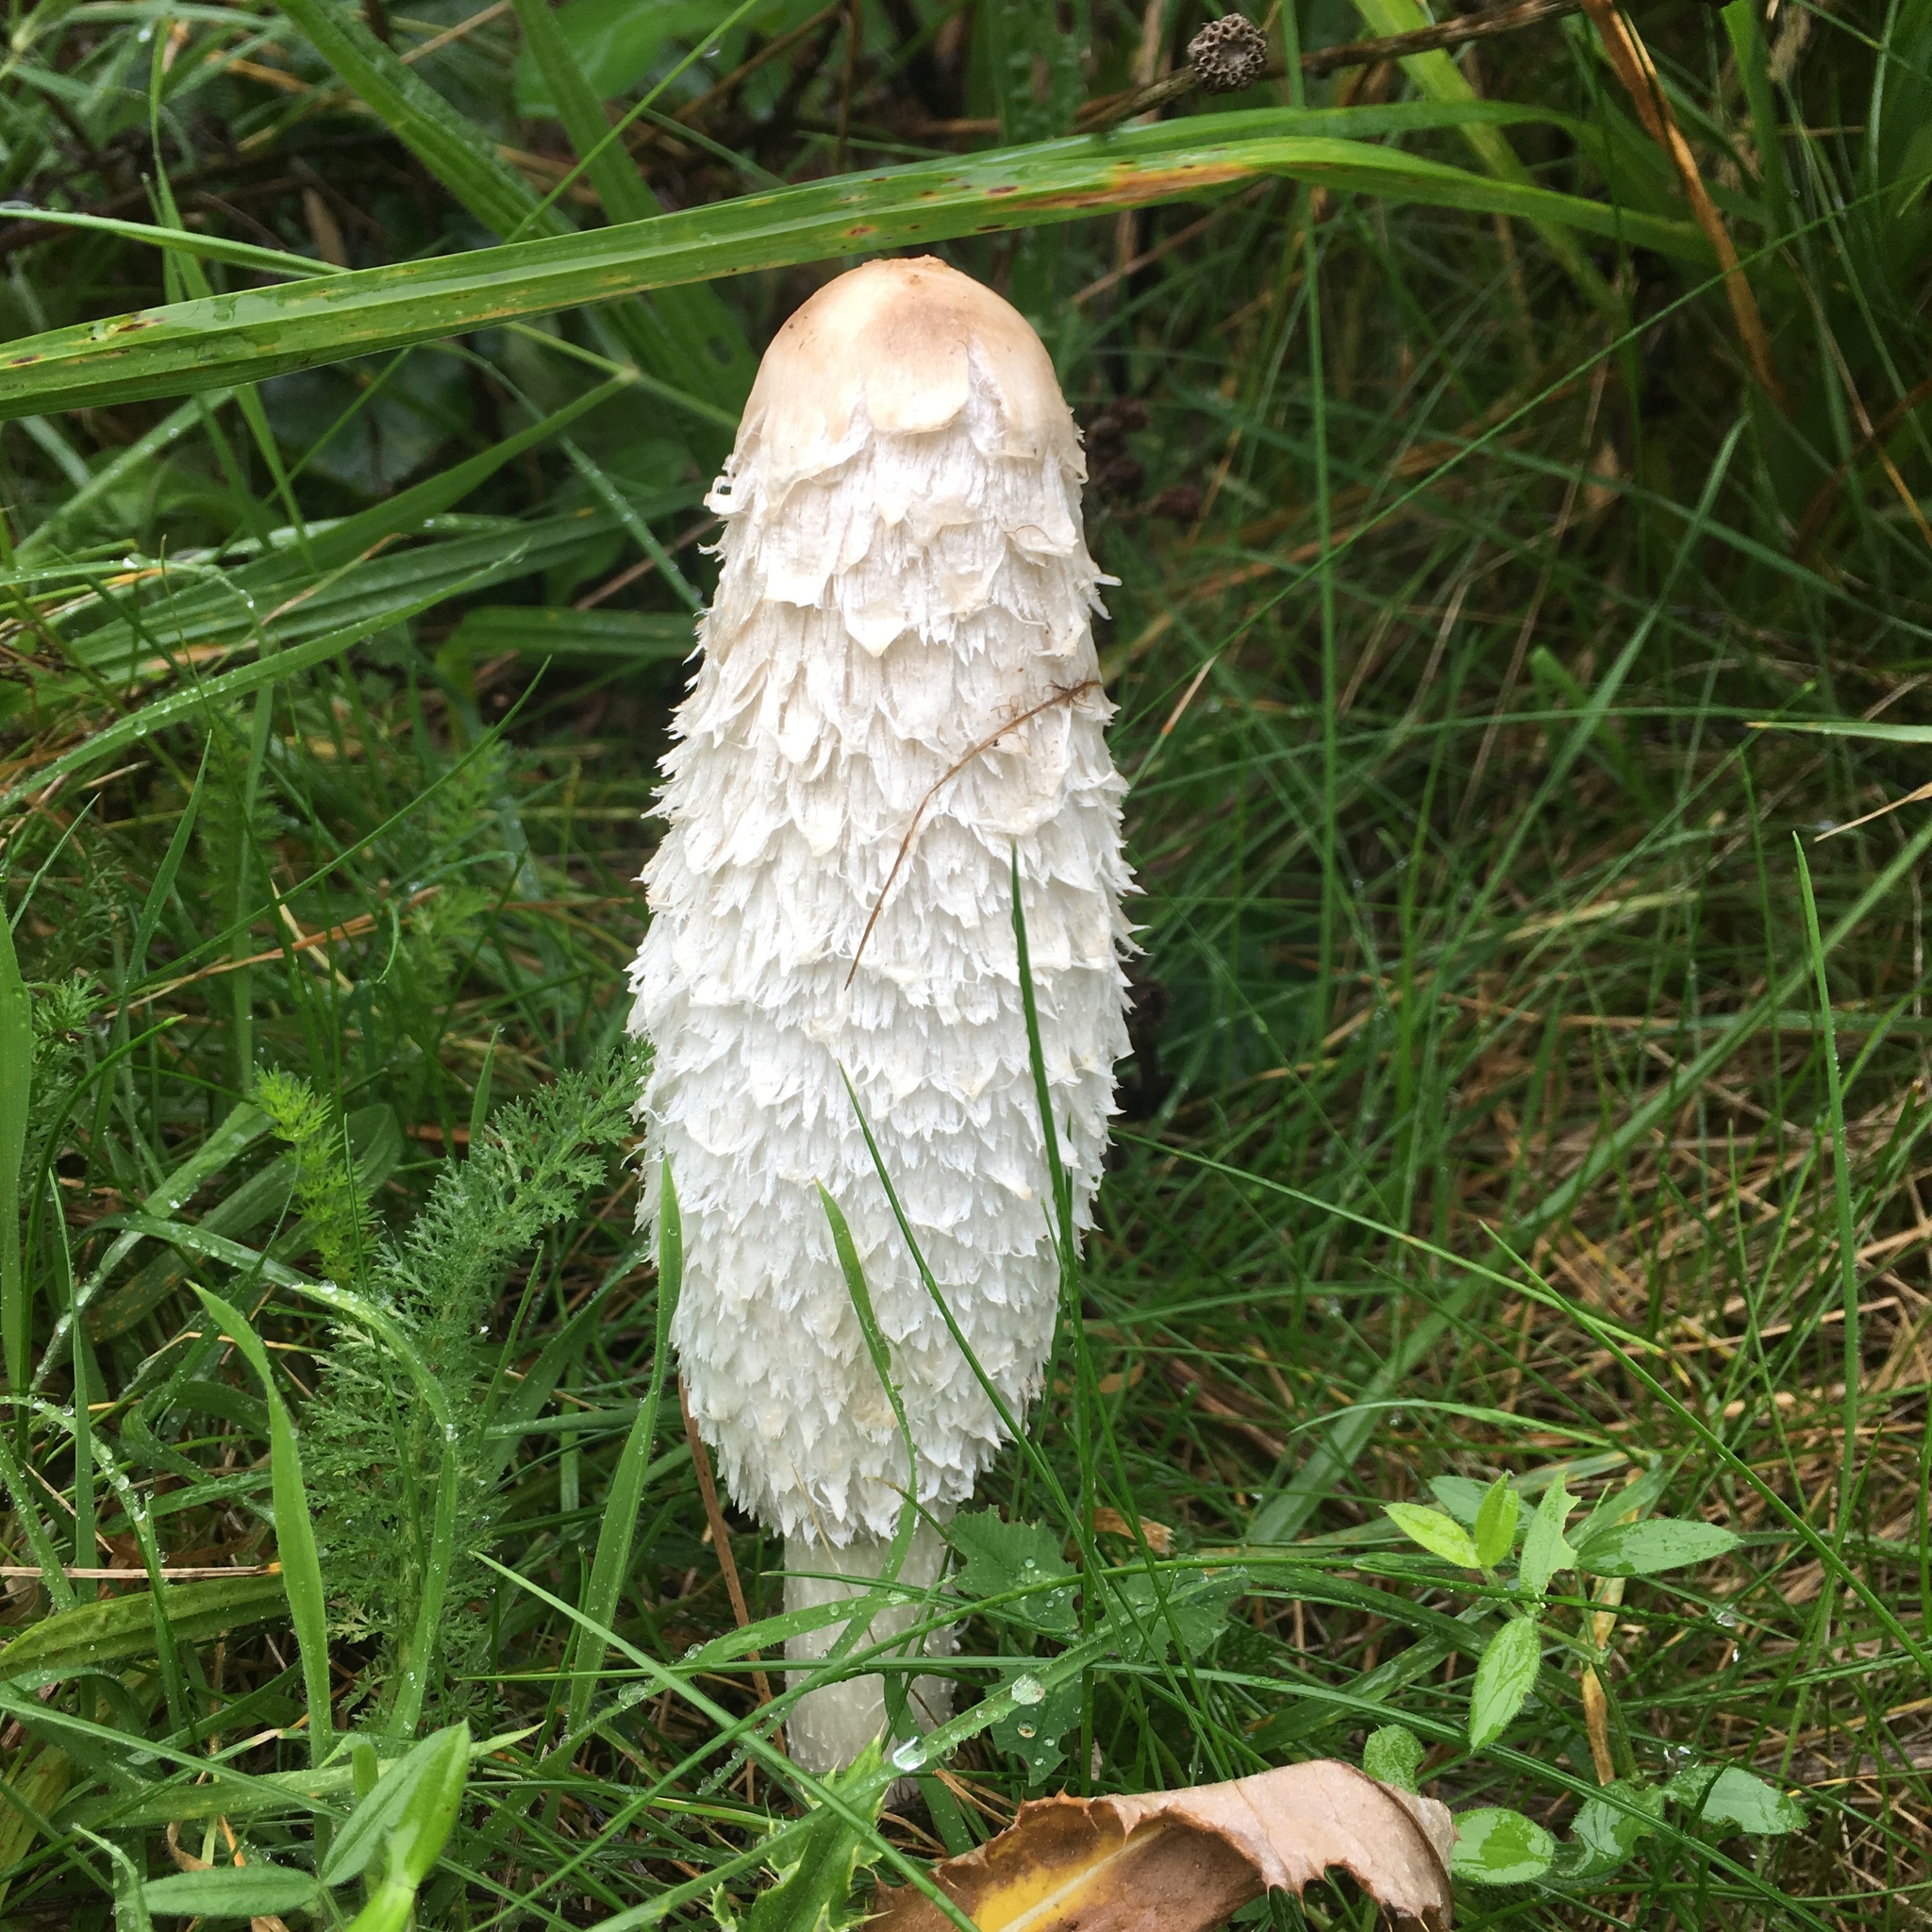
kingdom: Fungi
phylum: Basidiomycota
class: Agaricomycetes
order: Agaricales
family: Agaricaceae
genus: Coprinus
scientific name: Coprinus comatus
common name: Lawyer's wig
